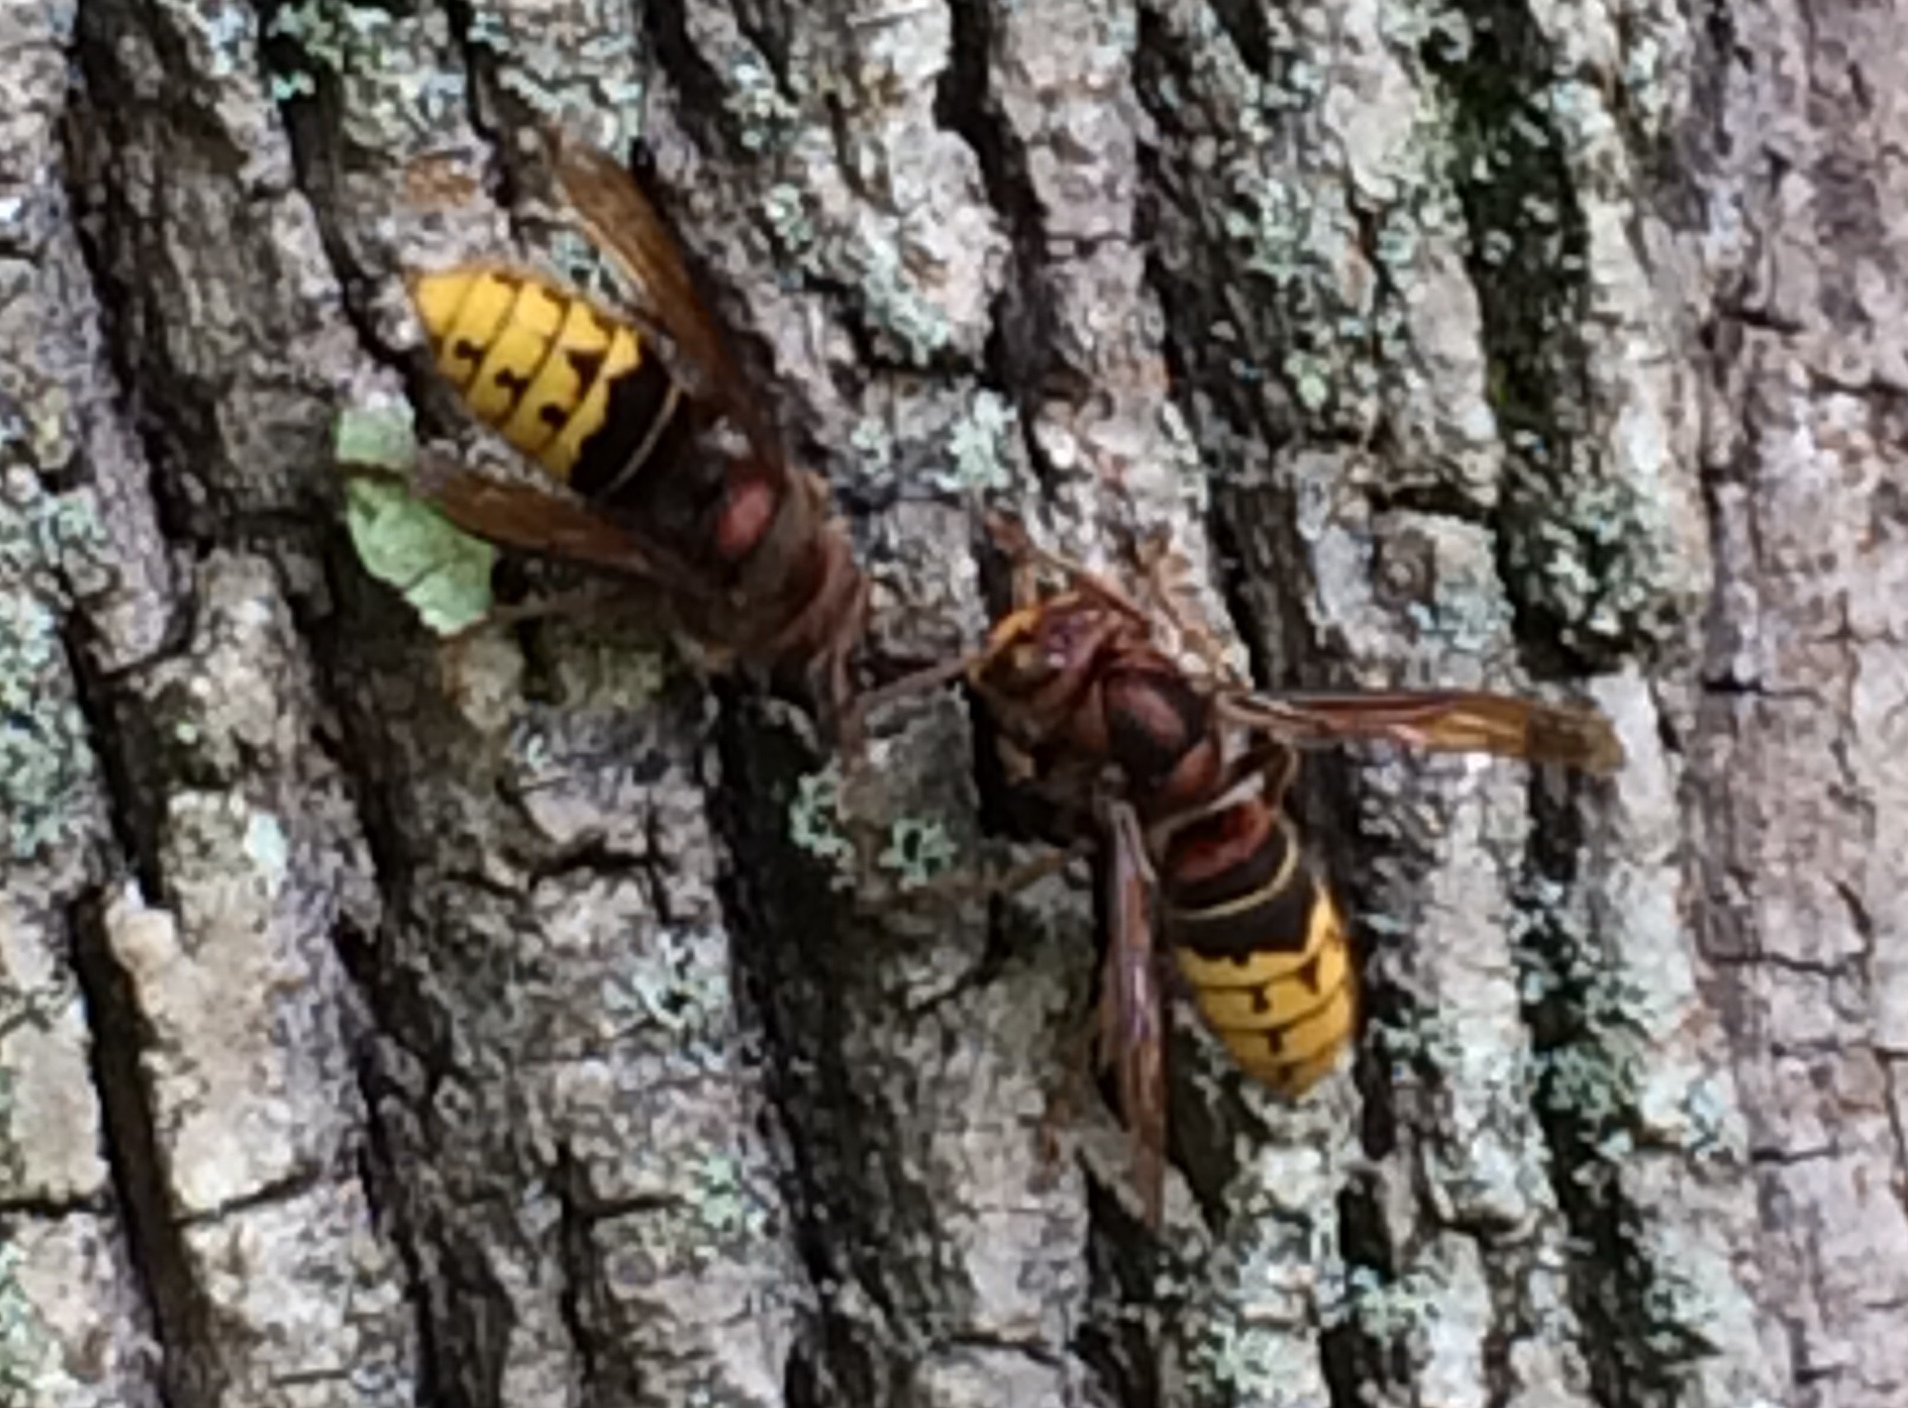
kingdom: Animalia
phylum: Arthropoda
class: Insecta
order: Hymenoptera
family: Vespidae
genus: Vespa
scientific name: Vespa crabro
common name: Hornet
